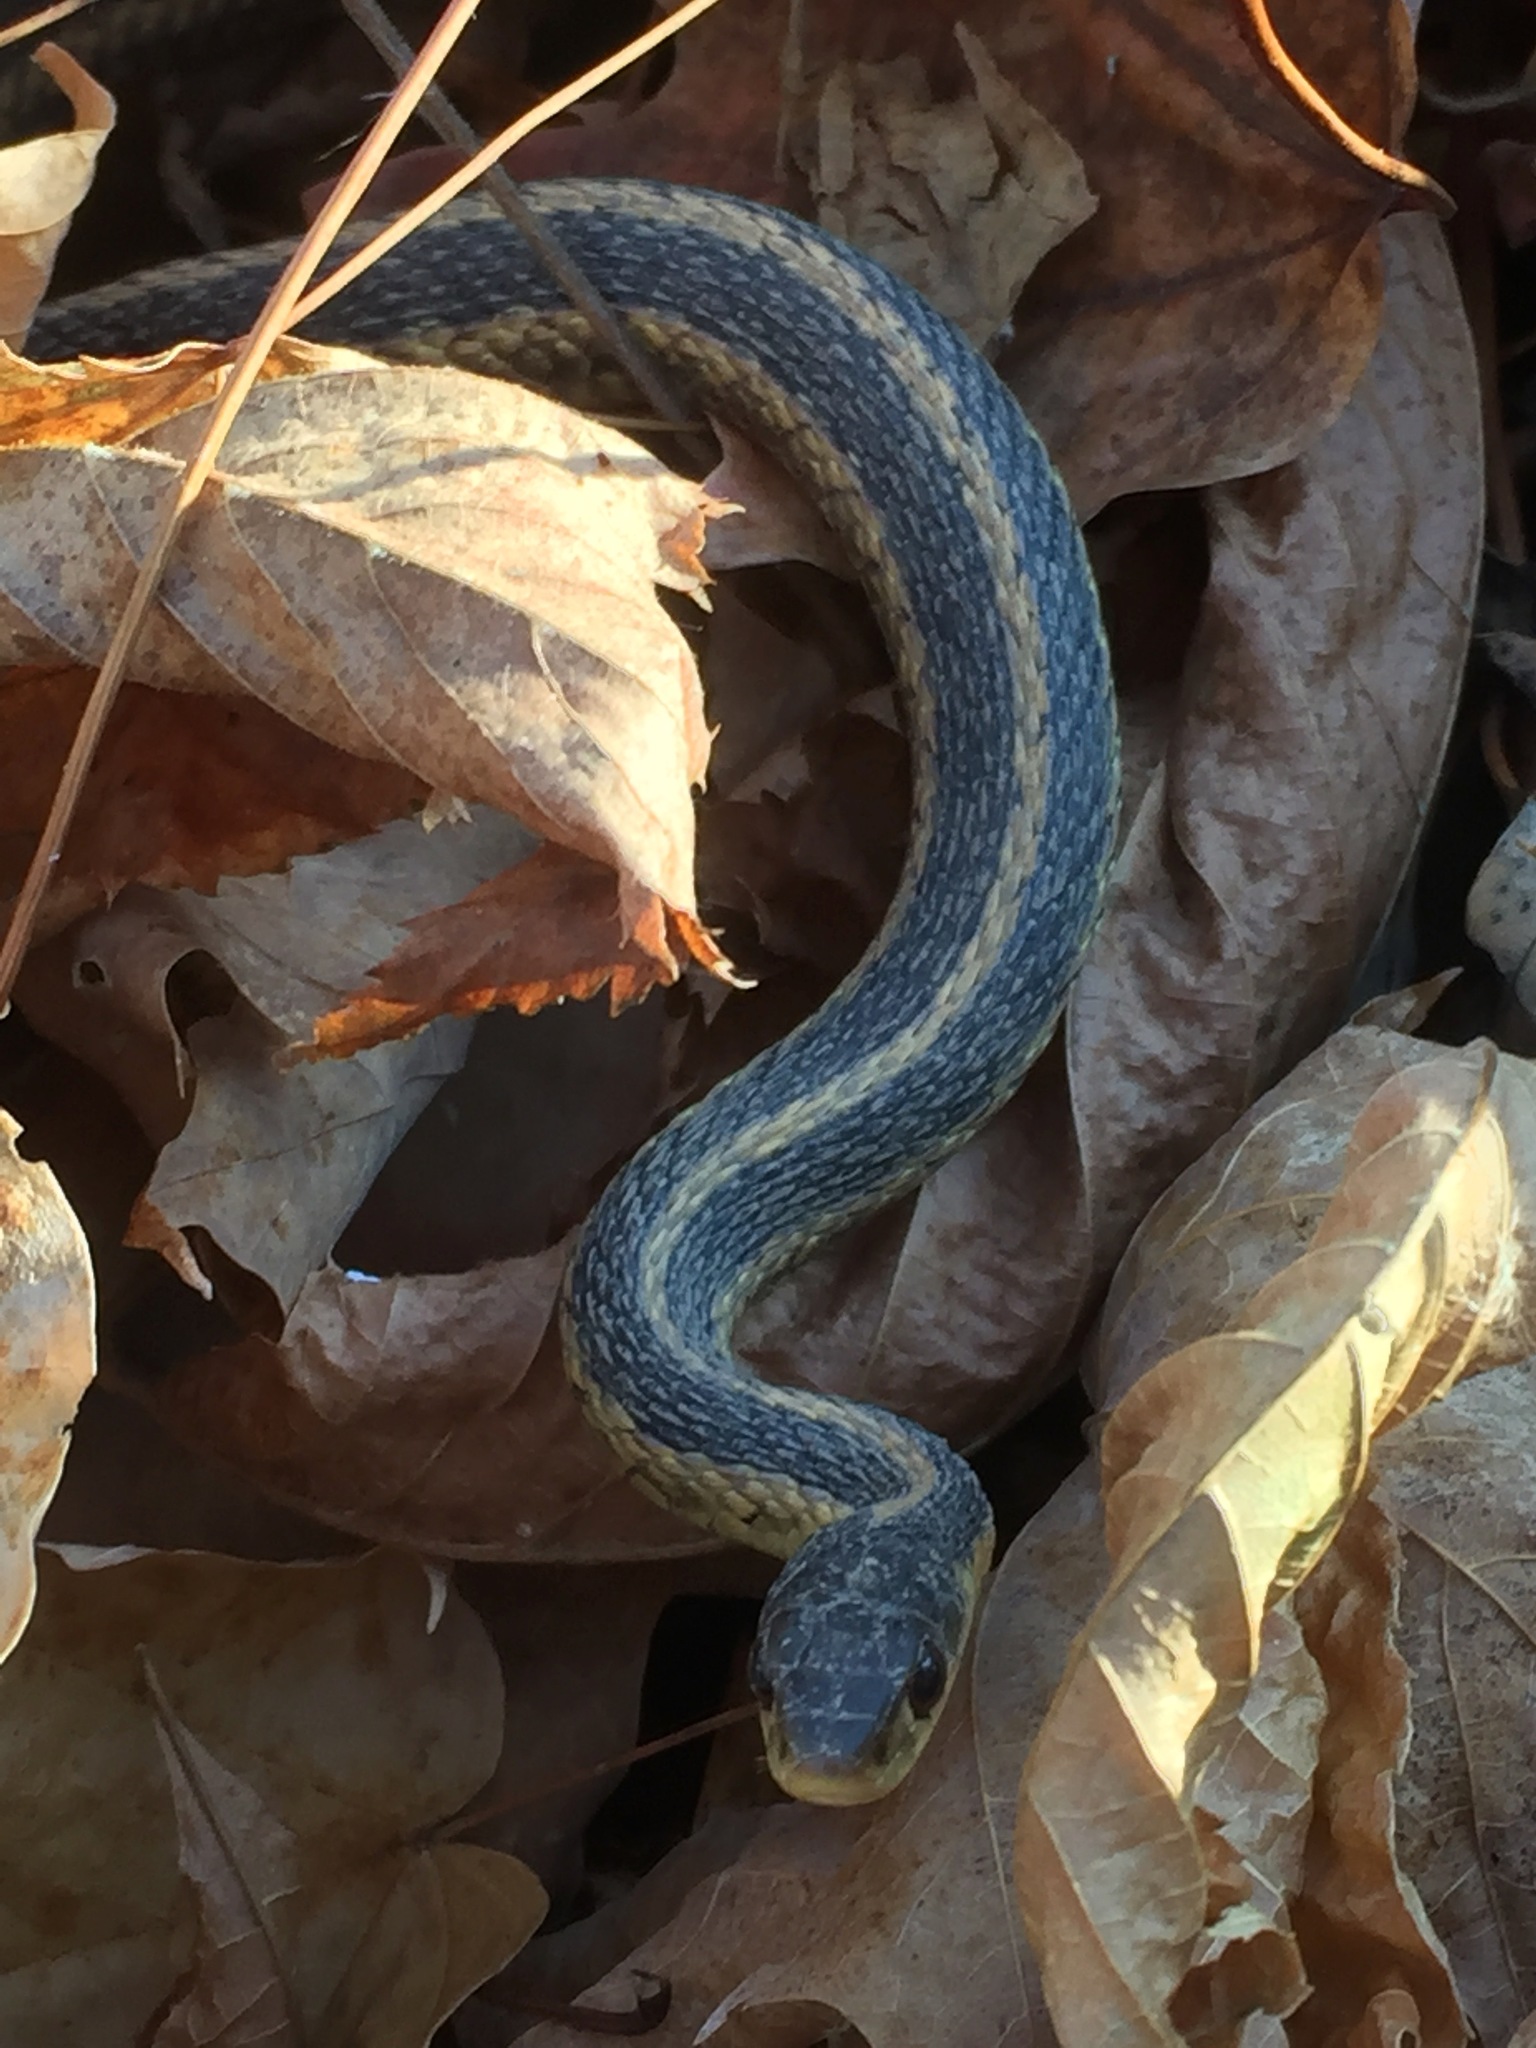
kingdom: Animalia
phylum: Chordata
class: Squamata
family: Colubridae
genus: Thamnophis
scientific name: Thamnophis sirtalis
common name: Common garter snake
